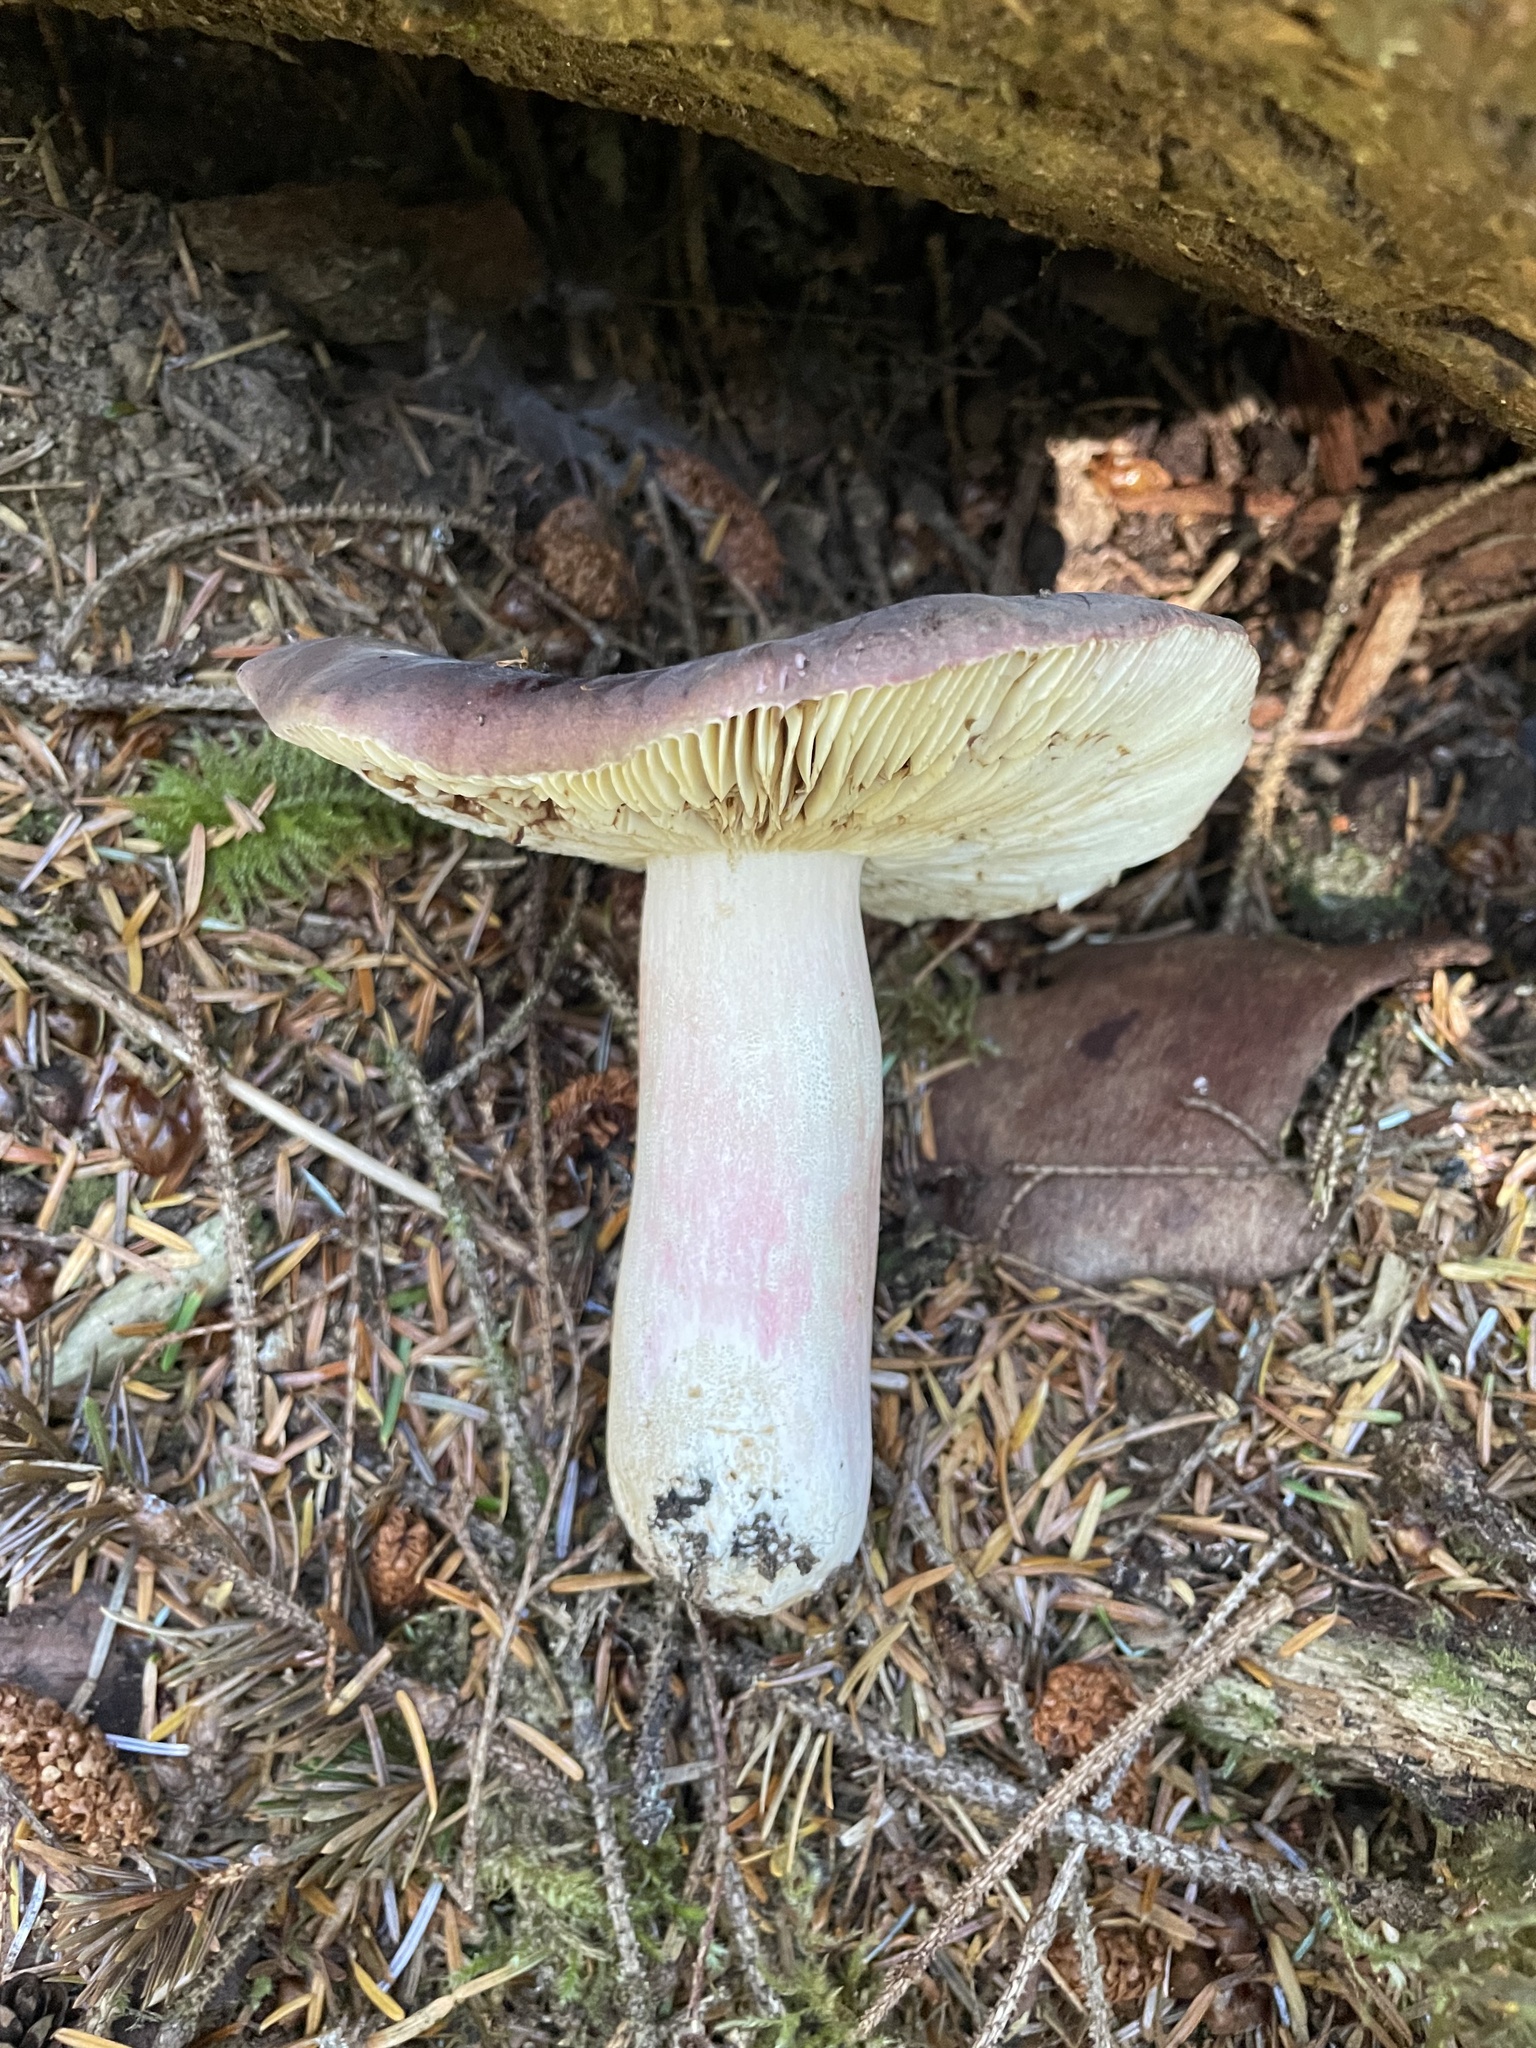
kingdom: Fungi
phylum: Basidiomycota
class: Agaricomycetes
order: Russulales
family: Russulaceae
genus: Russula
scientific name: Russula xerampelina
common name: Crab brittlegill
